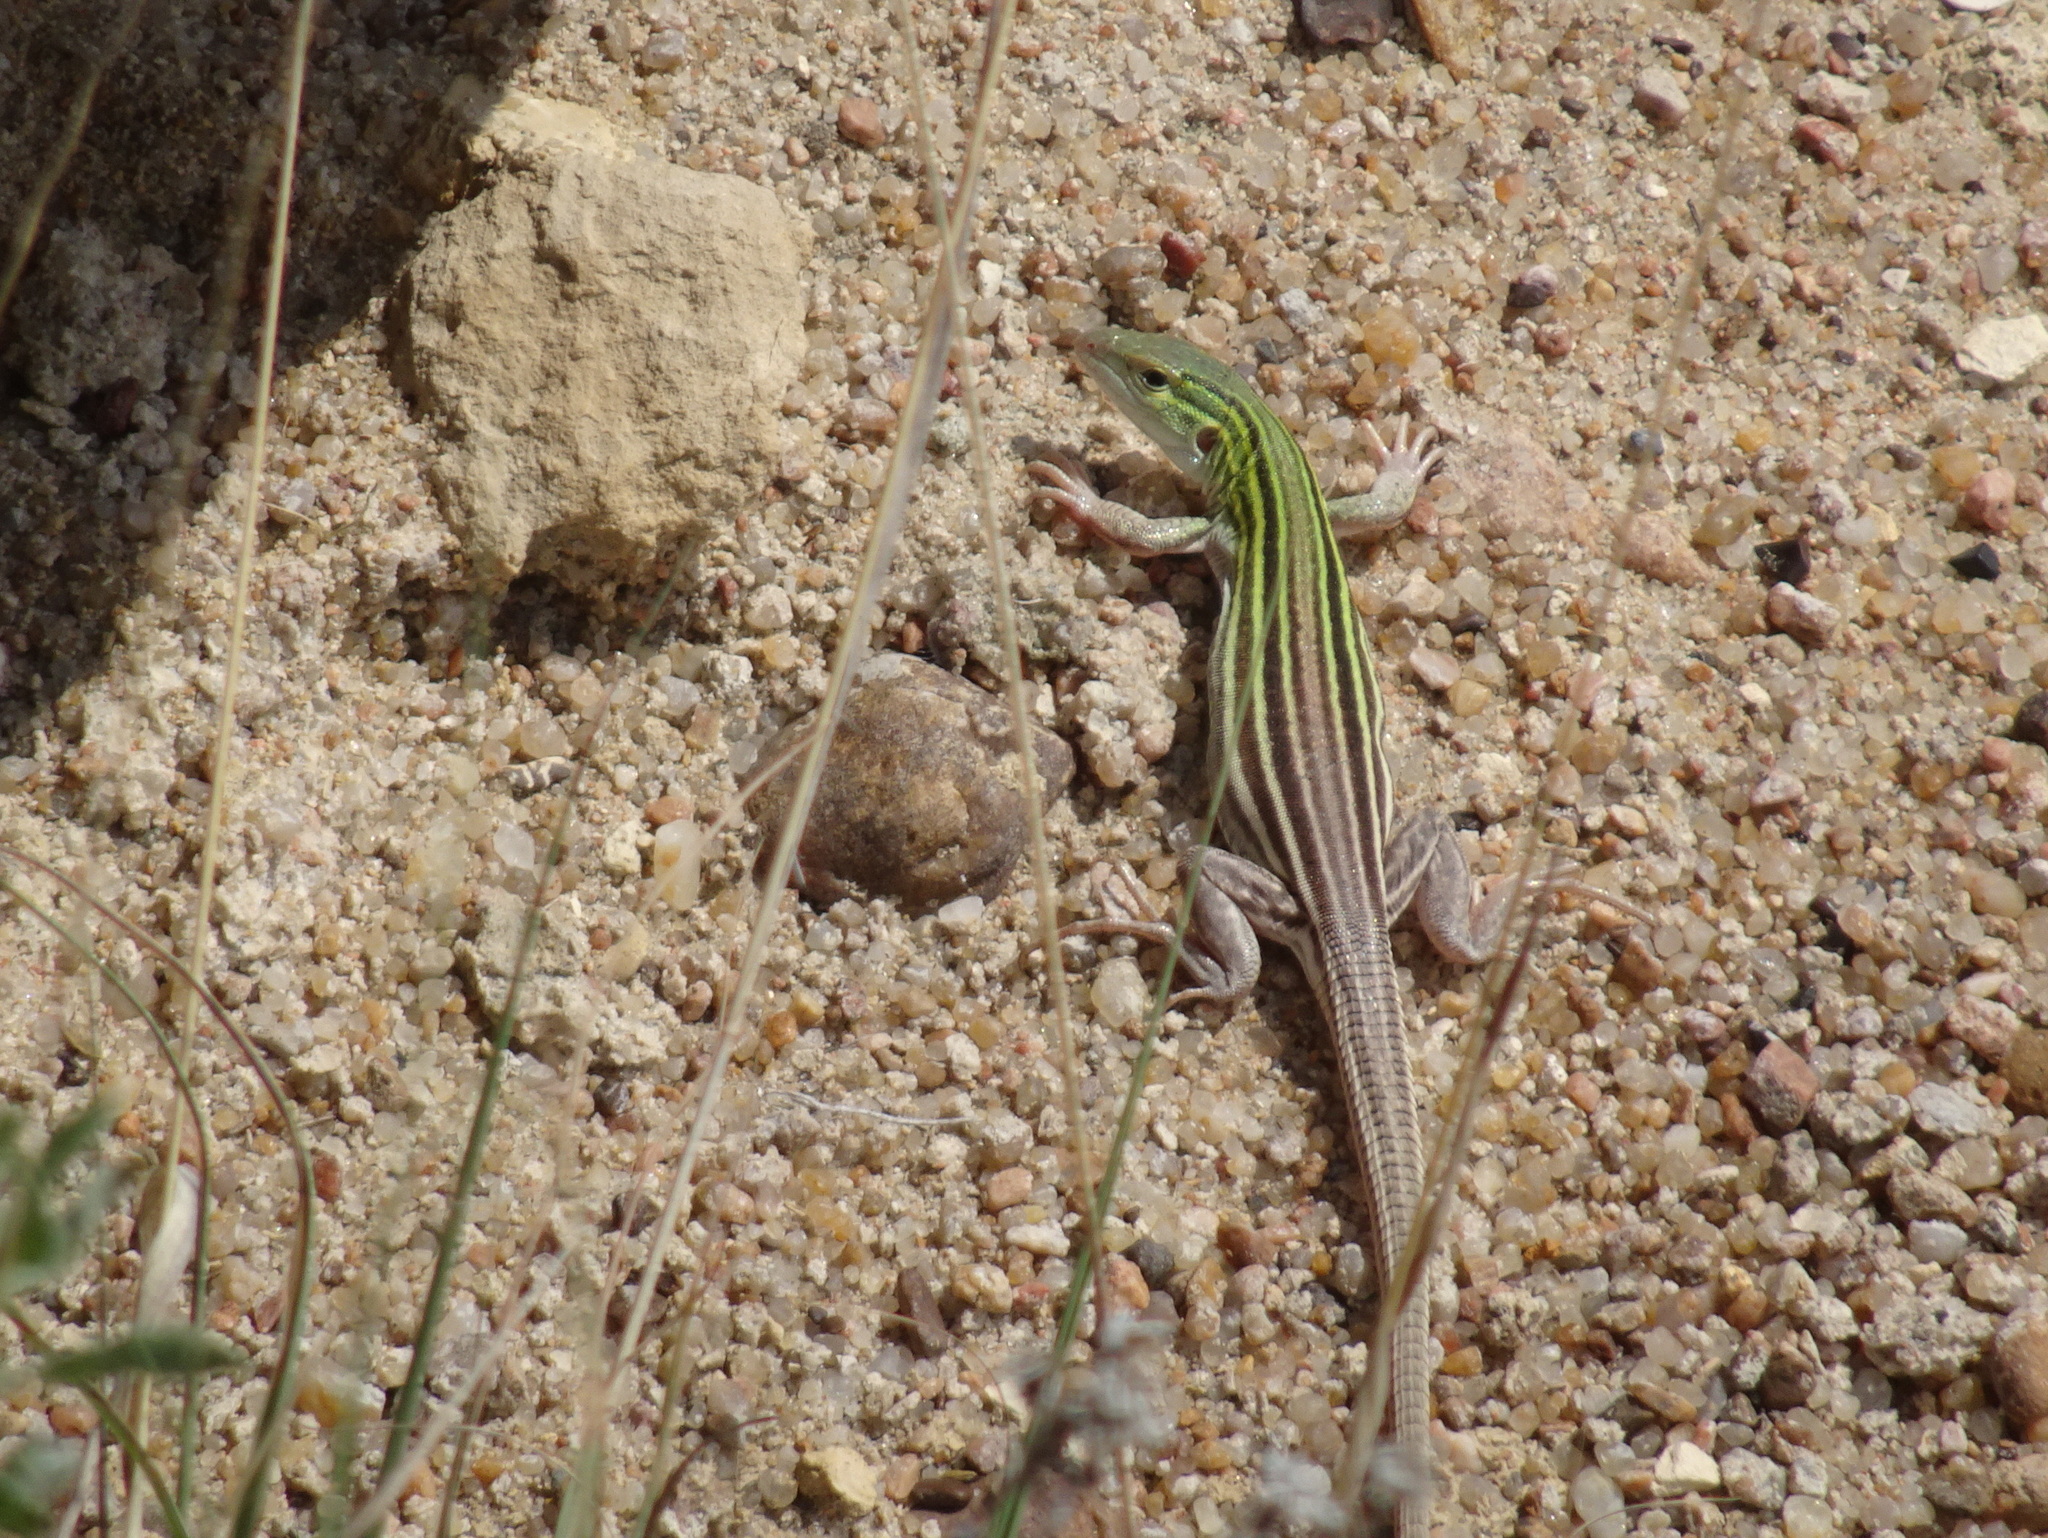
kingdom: Animalia
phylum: Chordata
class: Squamata
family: Teiidae
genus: Aspidoscelis
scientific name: Aspidoscelis sexlineatus
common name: Six-lined racerunner
